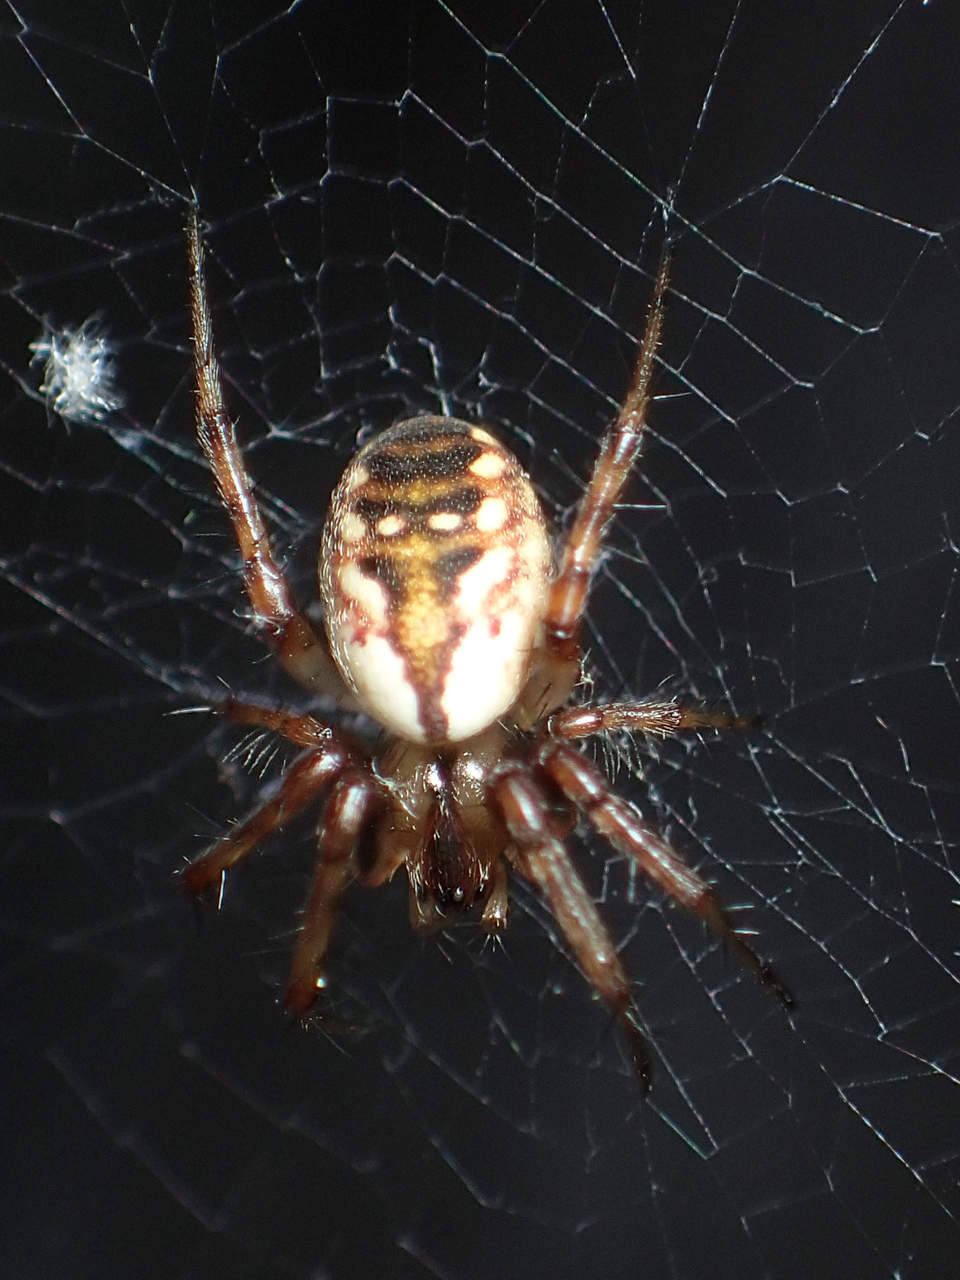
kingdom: Animalia
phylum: Arthropoda
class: Arachnida
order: Araneae
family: Araneidae
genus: Mangora
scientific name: Mangora placida
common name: Tuft-legged orbweaver
